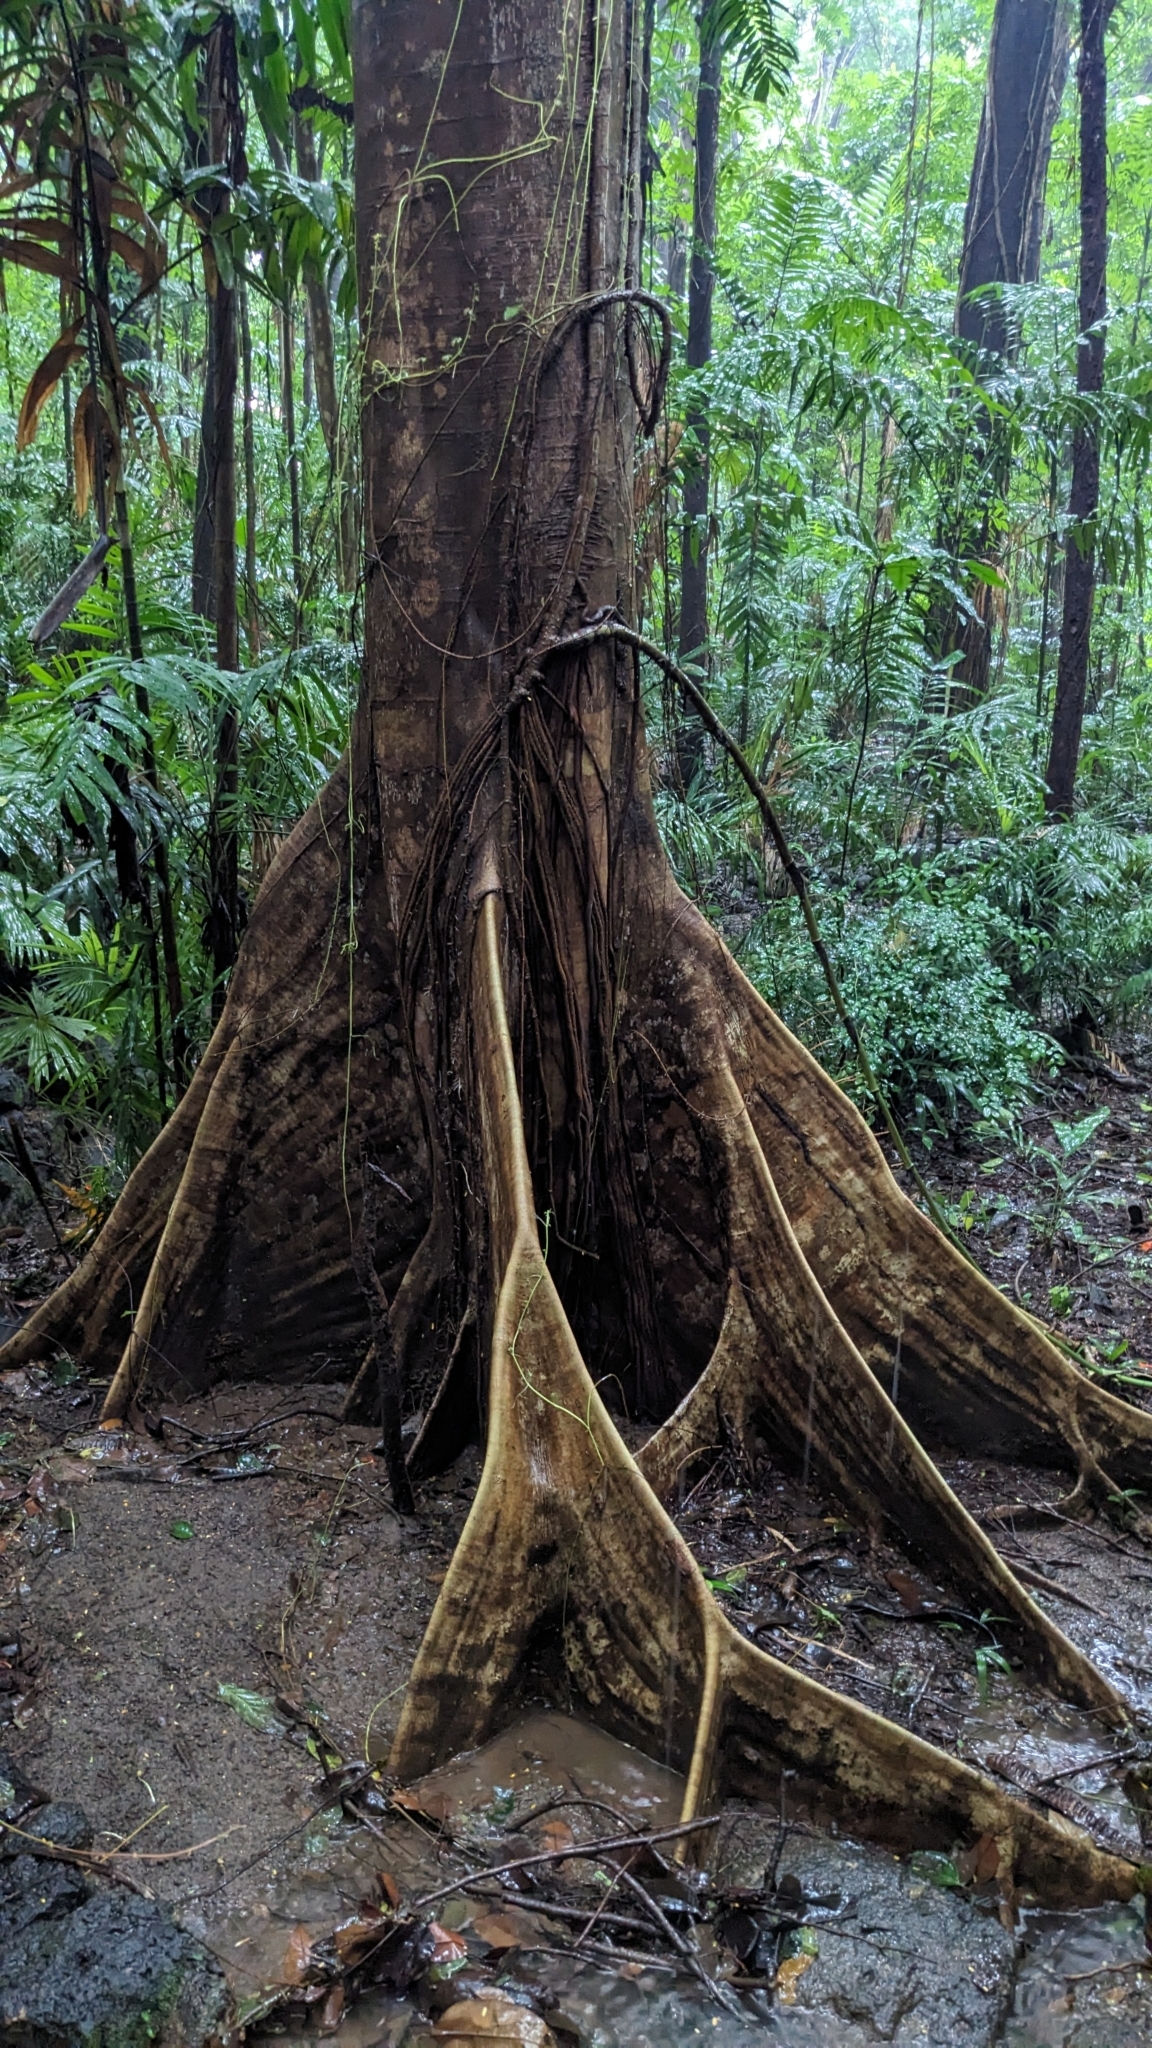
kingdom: Plantae
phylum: Tracheophyta
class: Magnoliopsida
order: Malvales
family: Malvaceae
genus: Ceiba
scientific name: Ceiba pentandra
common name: Kapok
